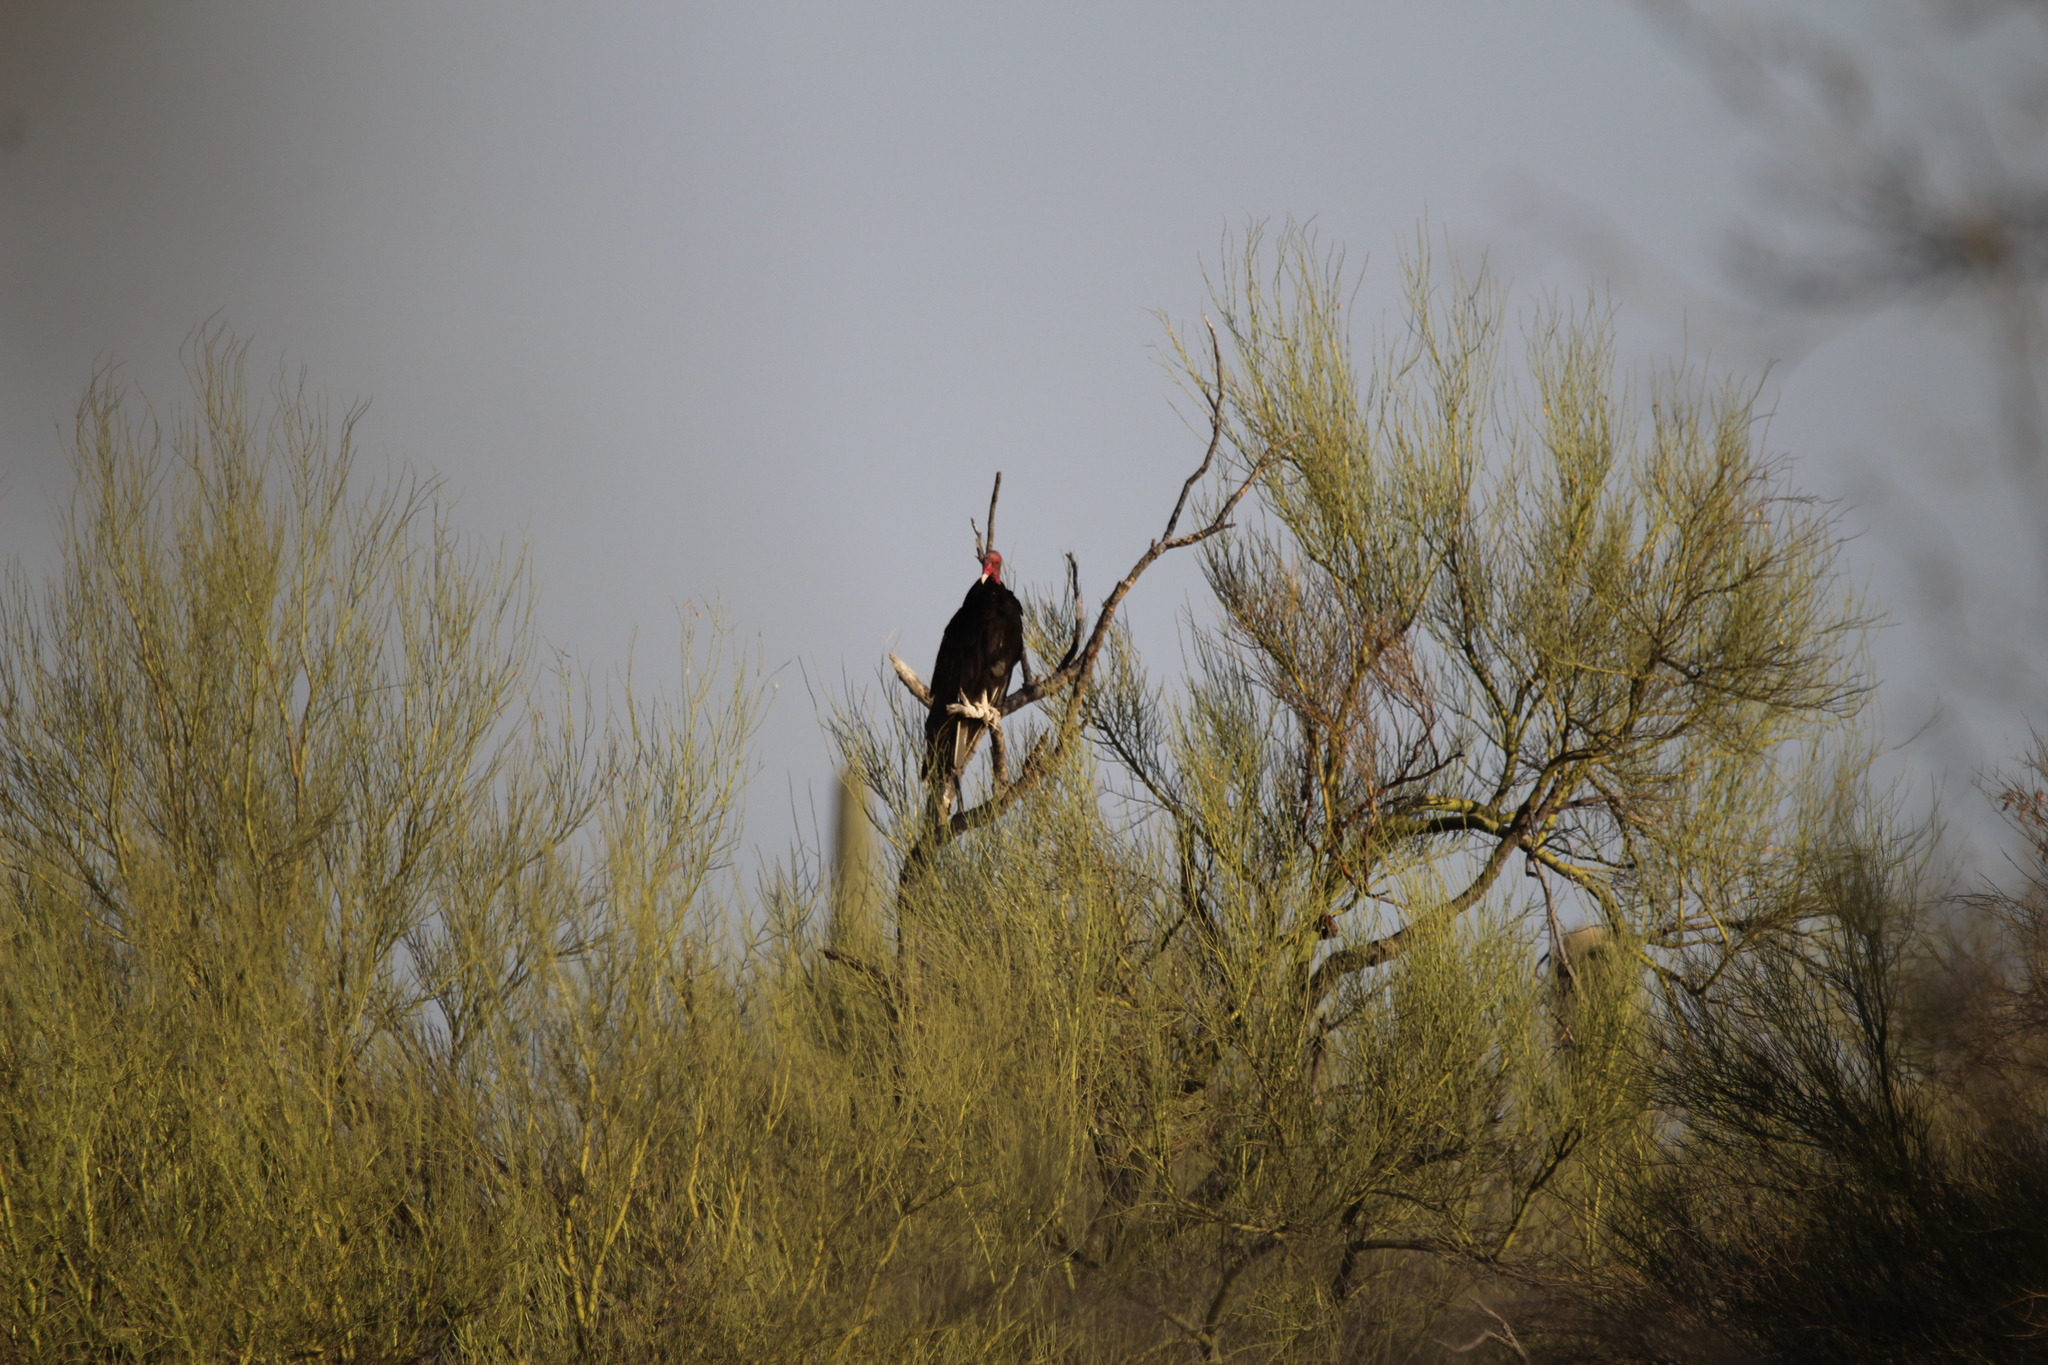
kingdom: Animalia
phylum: Chordata
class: Aves
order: Accipitriformes
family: Cathartidae
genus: Cathartes
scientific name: Cathartes aura
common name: Turkey vulture
